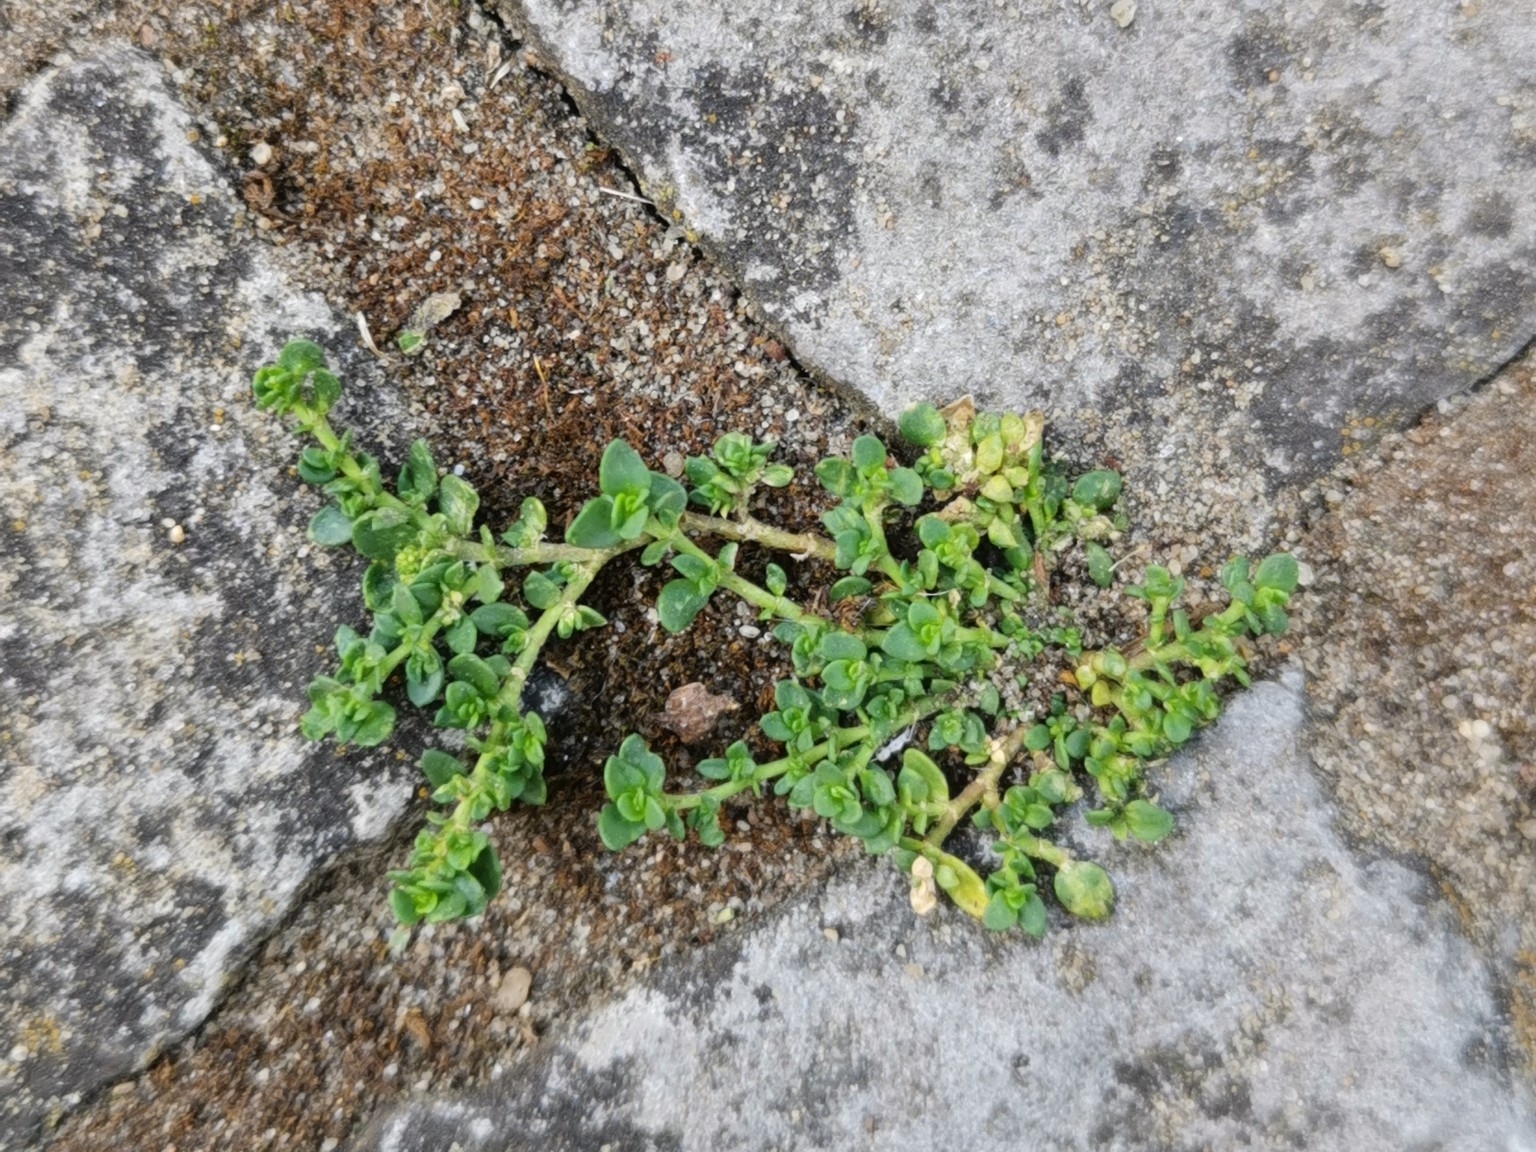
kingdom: Plantae
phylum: Tracheophyta
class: Magnoliopsida
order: Caryophyllales
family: Caryophyllaceae
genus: Herniaria
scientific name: Herniaria glabra
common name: Smooth rupturewort
